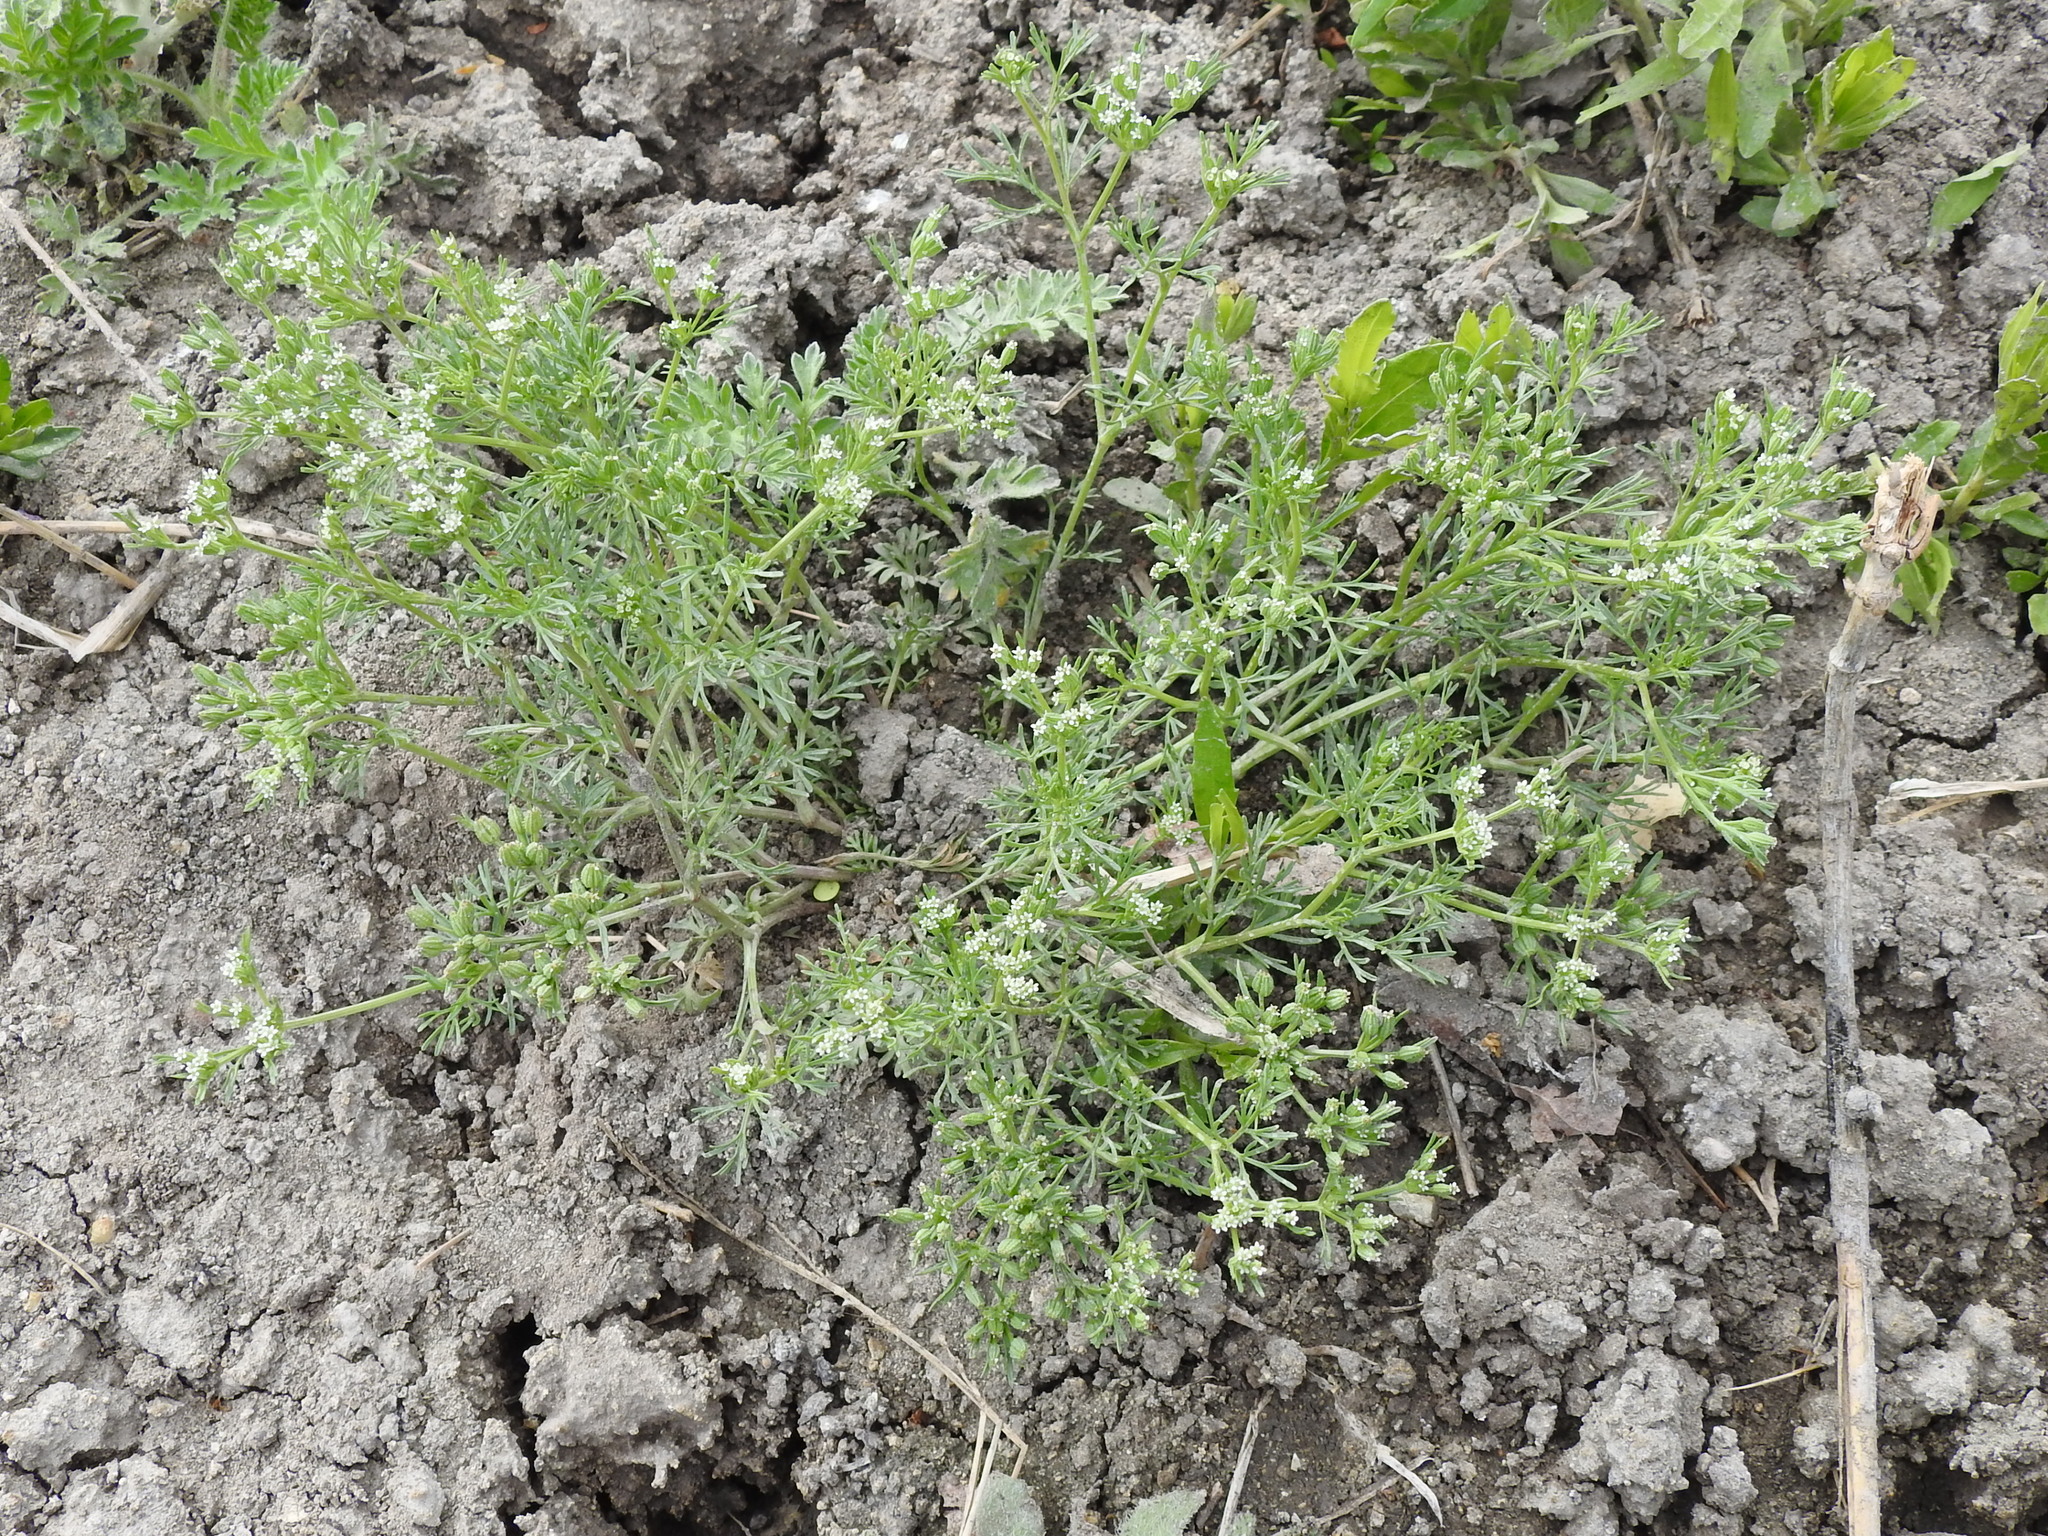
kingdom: Plantae
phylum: Tracheophyta
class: Magnoliopsida
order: Apiales
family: Apiaceae
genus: Ammoselinum
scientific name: Ammoselinum popei
